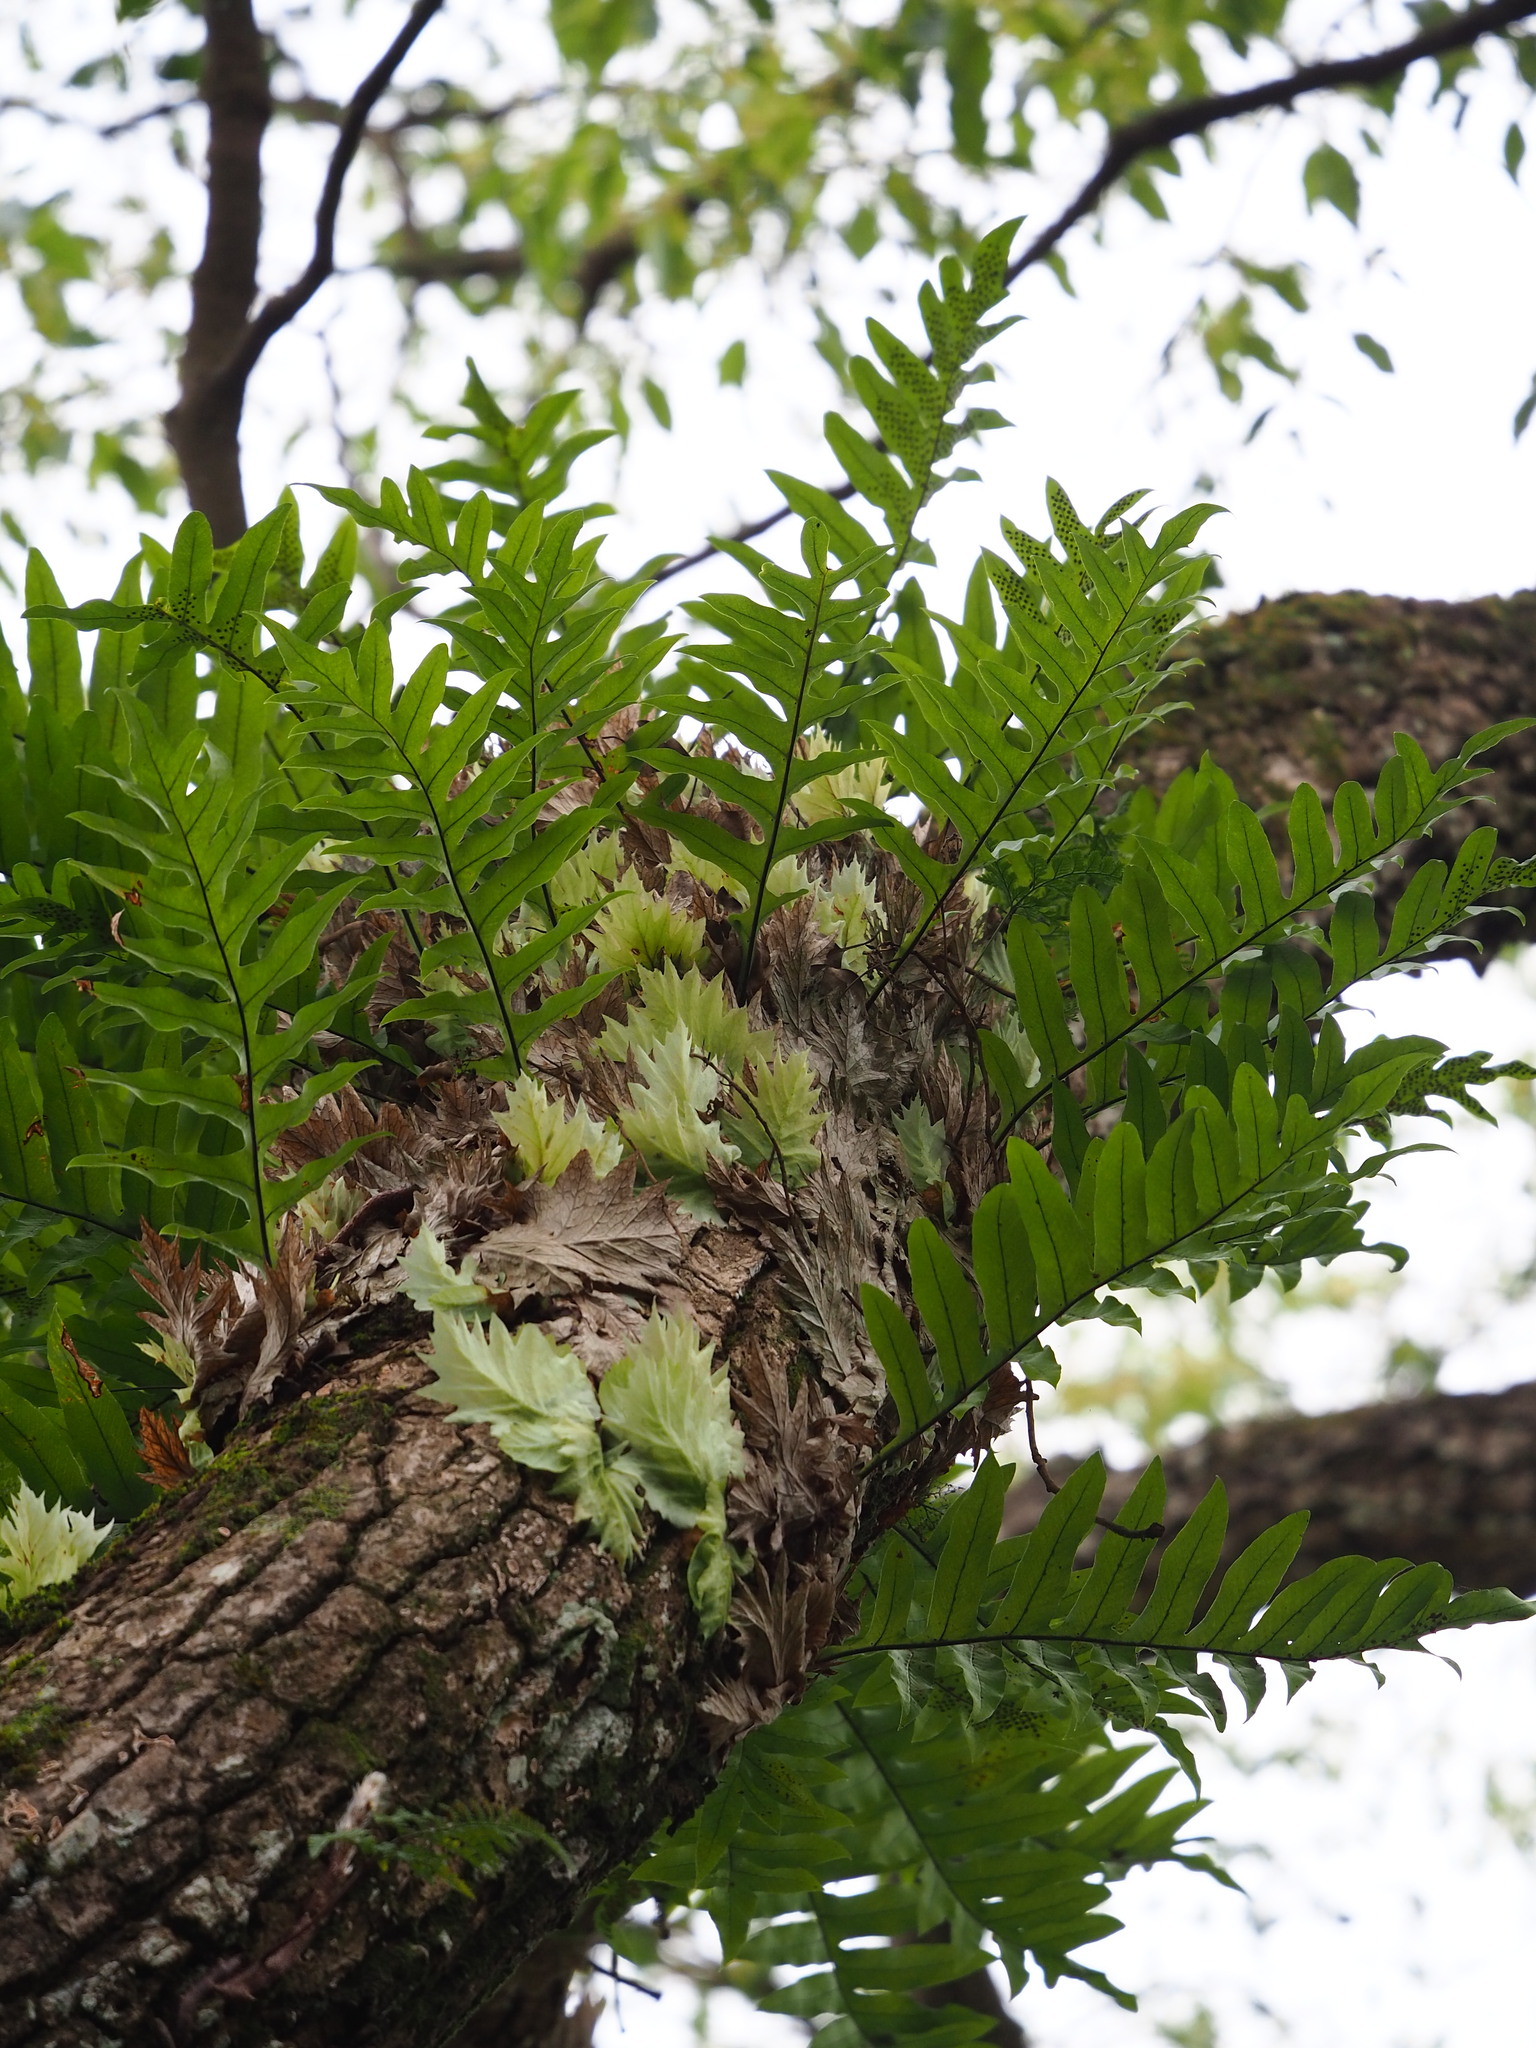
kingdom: Plantae
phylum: Tracheophyta
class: Polypodiopsida
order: Polypodiales
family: Polypodiaceae
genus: Drynaria
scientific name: Drynaria roosii
